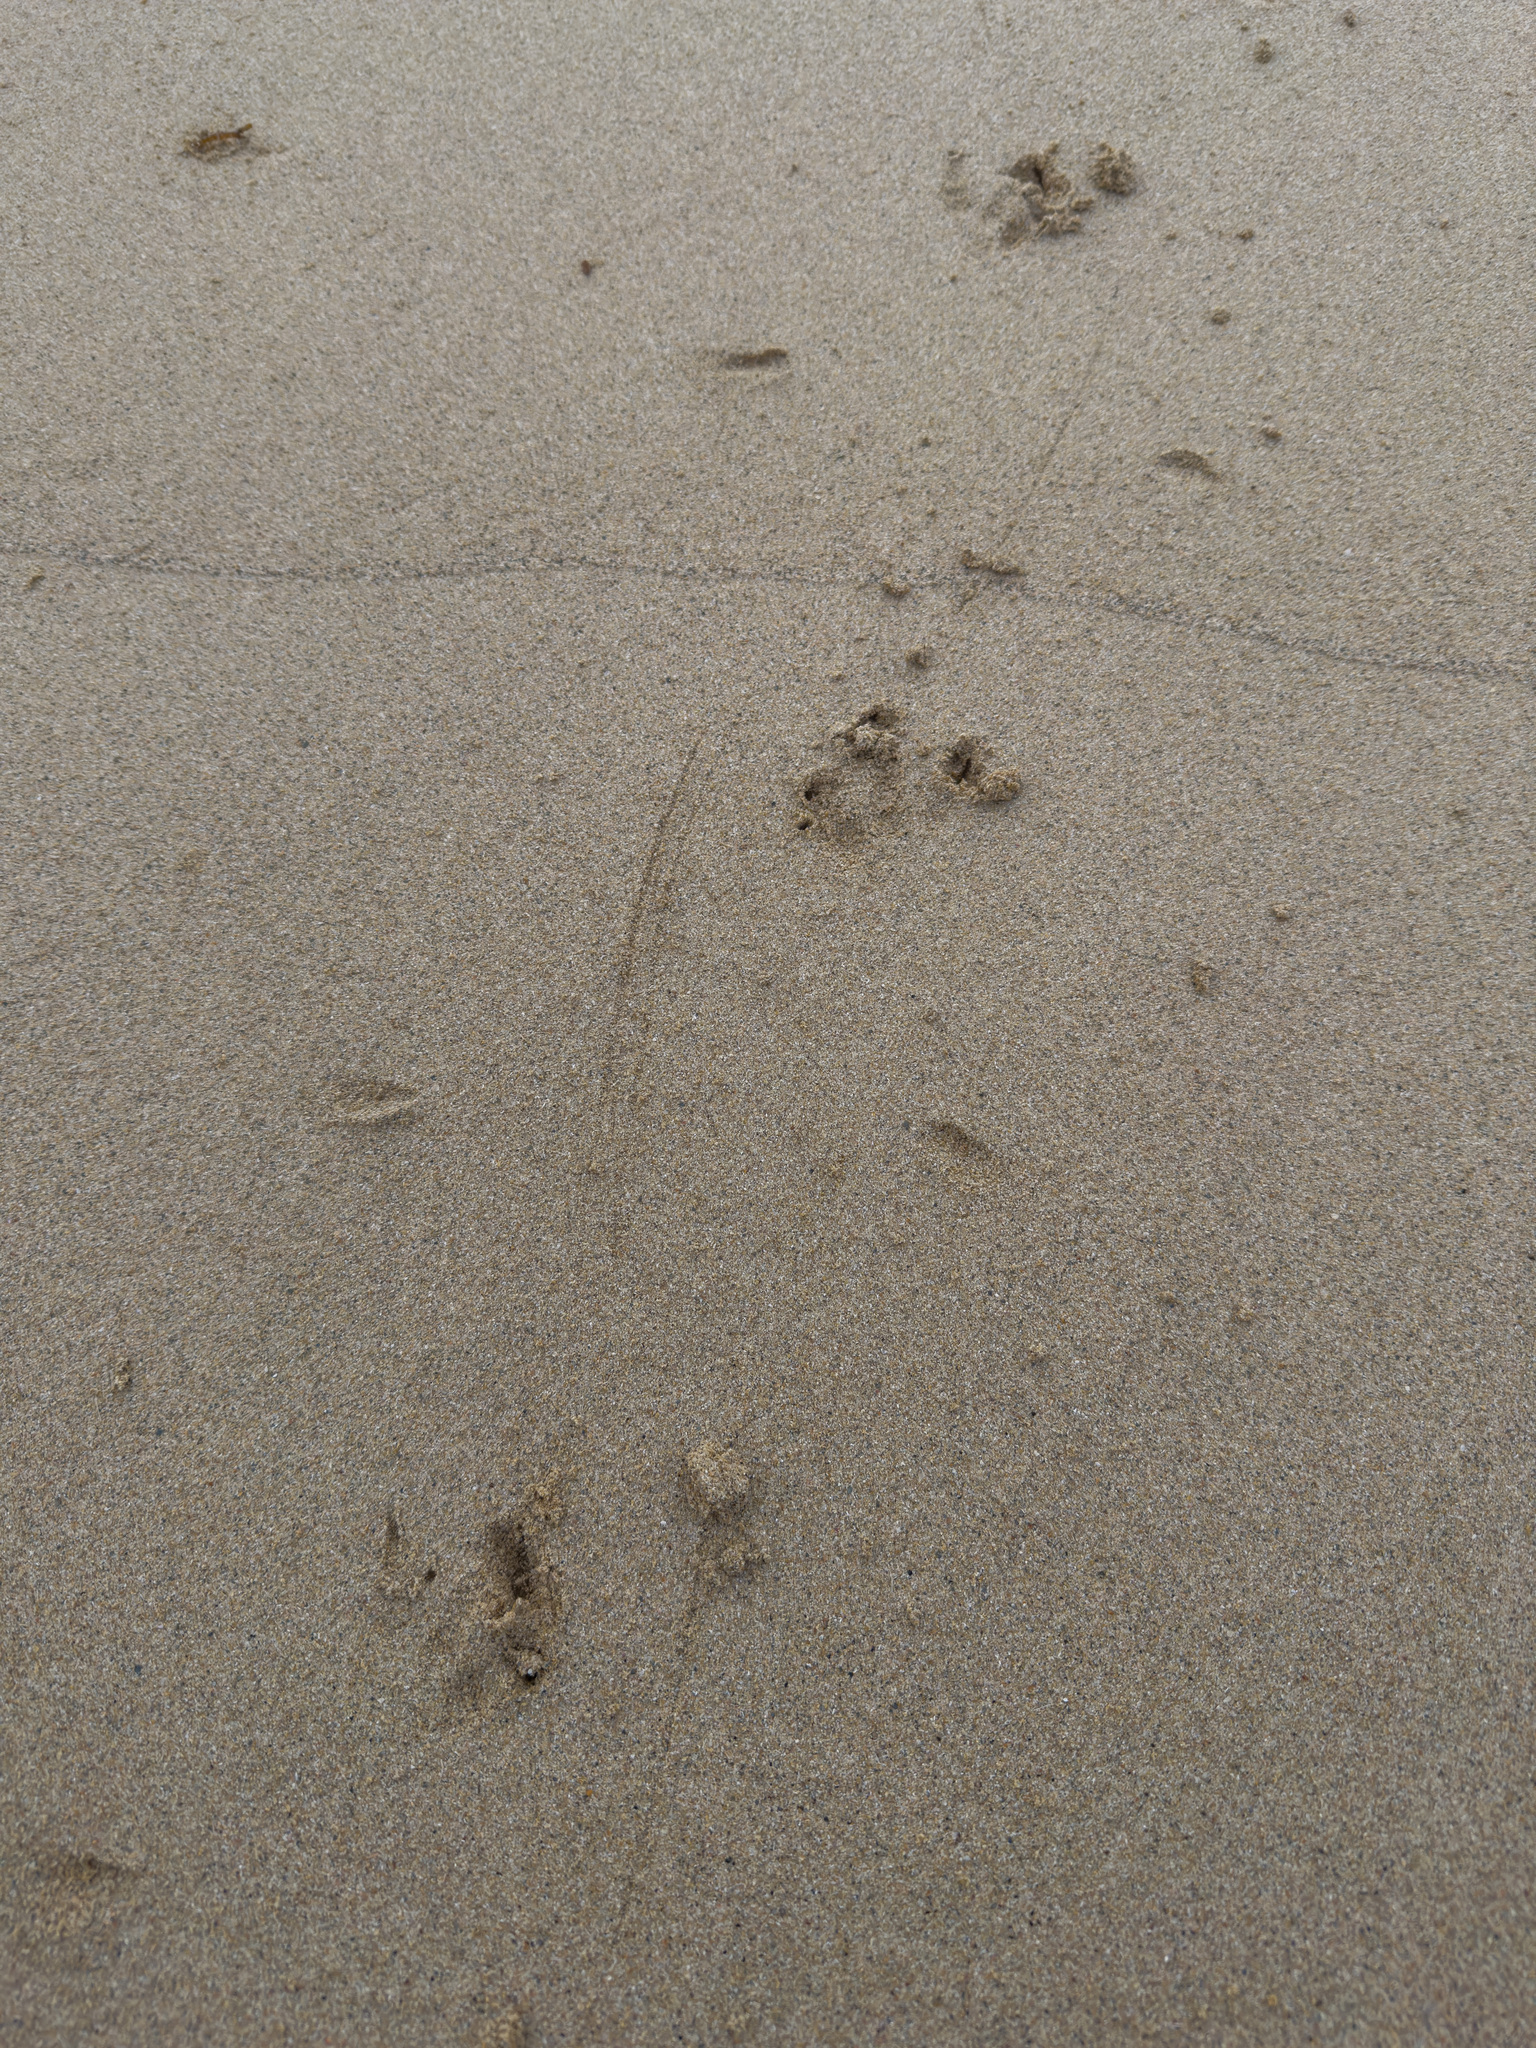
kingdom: Animalia
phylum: Chordata
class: Aves
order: Sphenisciformes
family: Spheniscidae
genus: Eudyptula
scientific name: Eudyptula minor
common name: Little penguin
